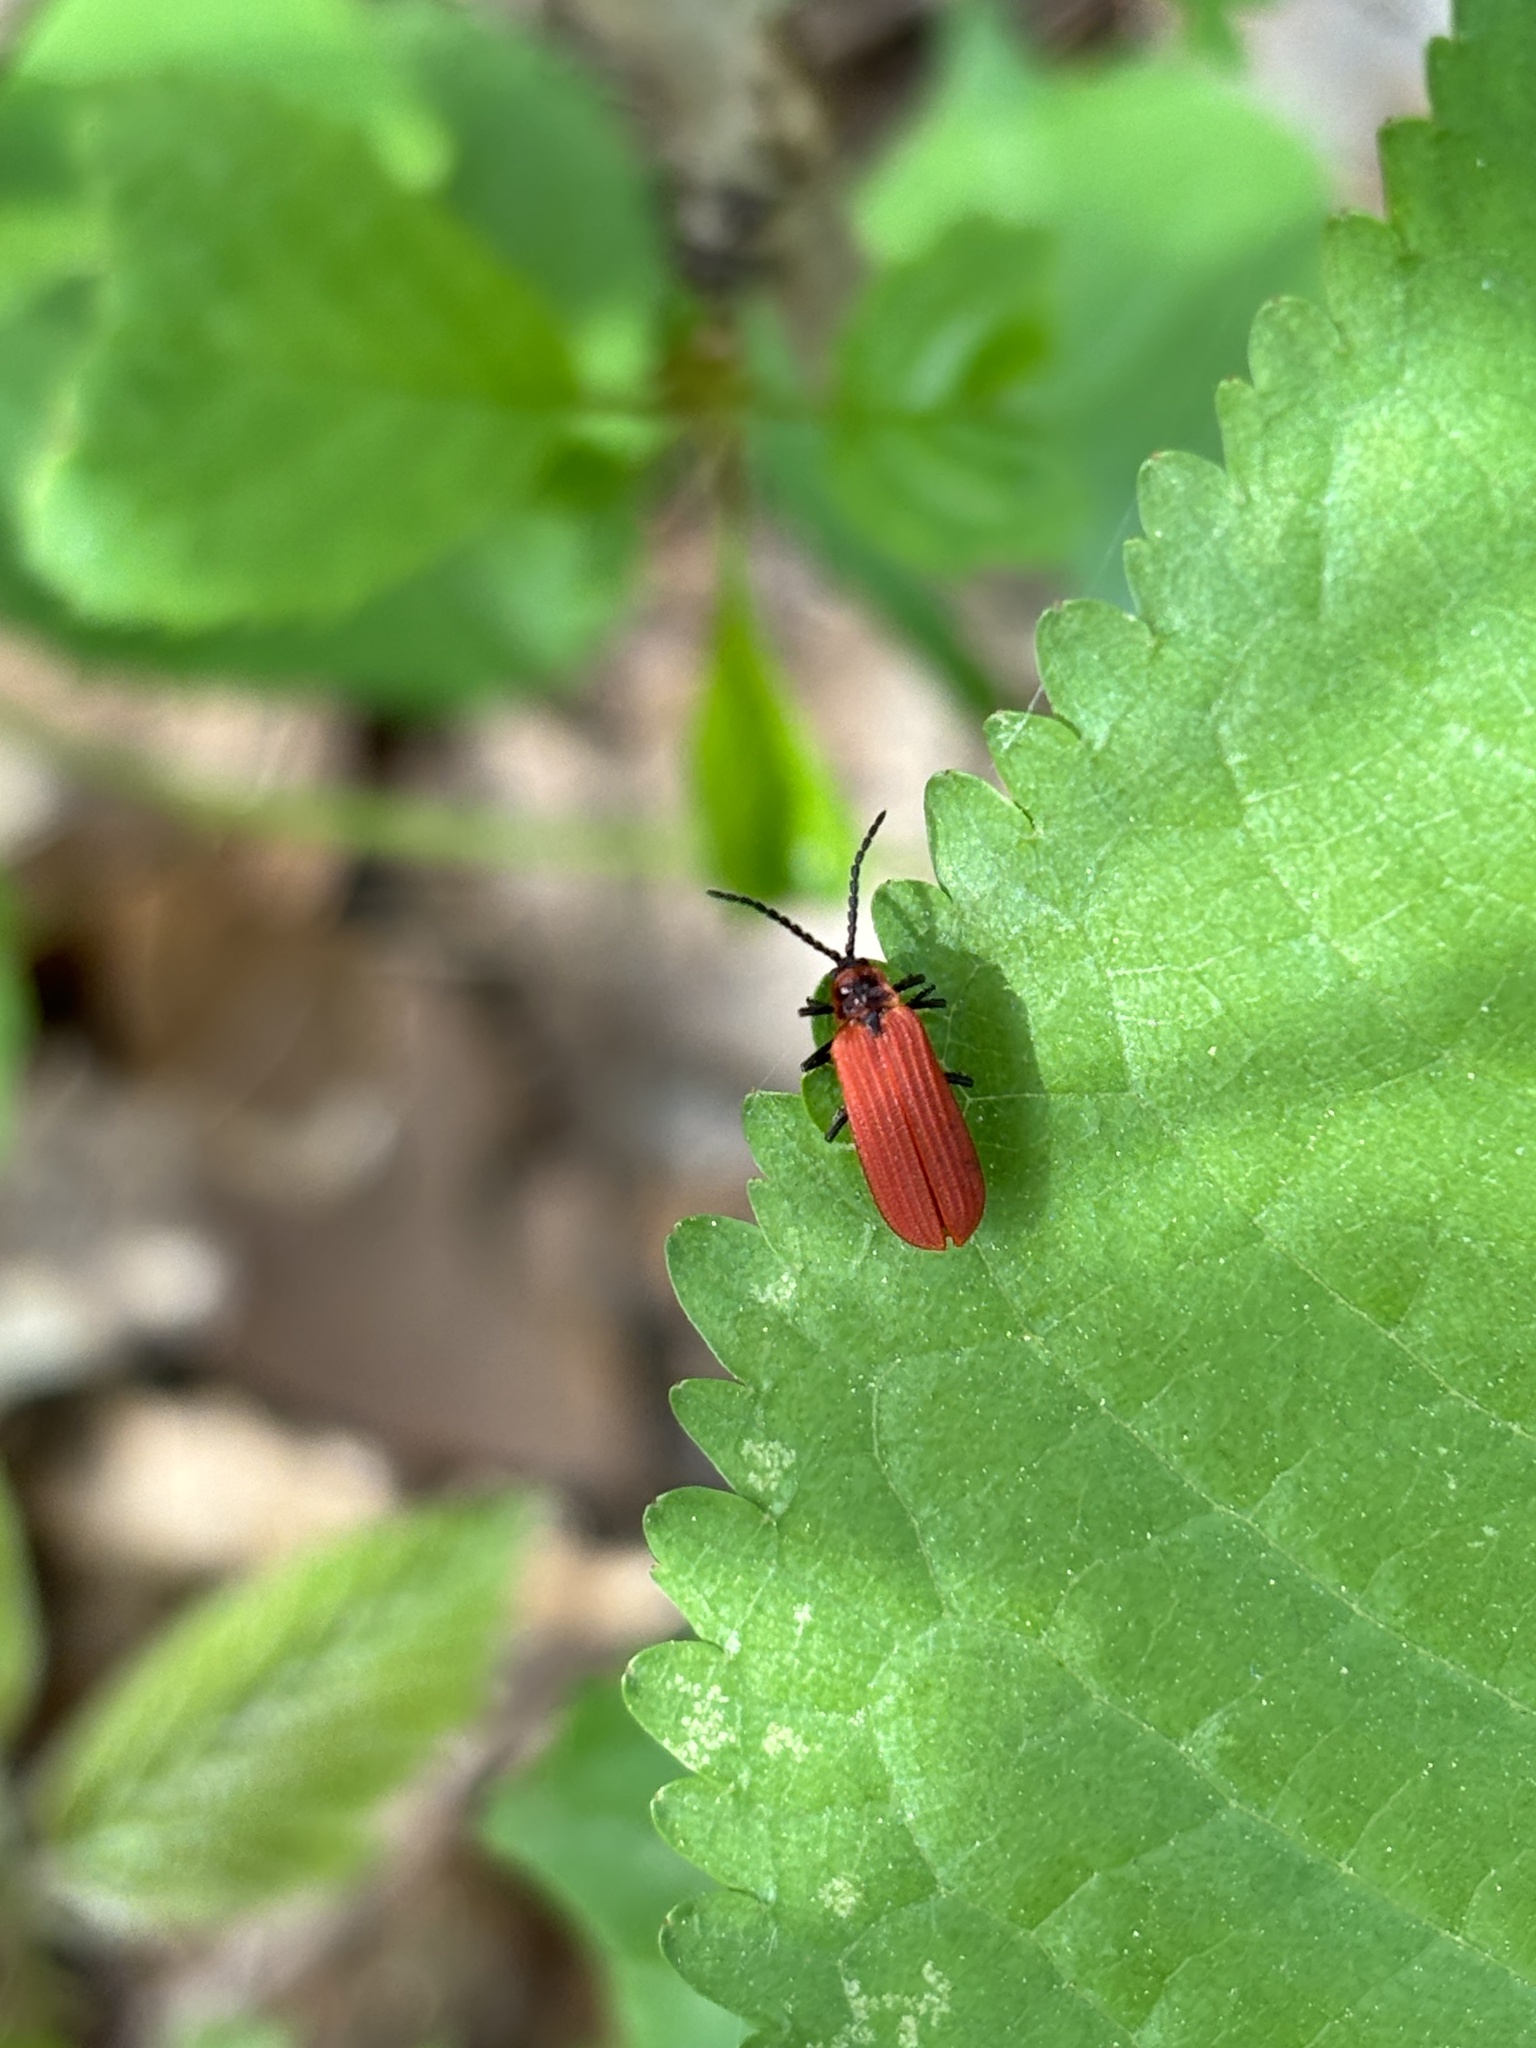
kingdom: Animalia
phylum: Arthropoda
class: Insecta
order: Coleoptera
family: Lycidae
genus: Dictyoptera
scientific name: Dictyoptera aurora
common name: Golden net-winged beetle
